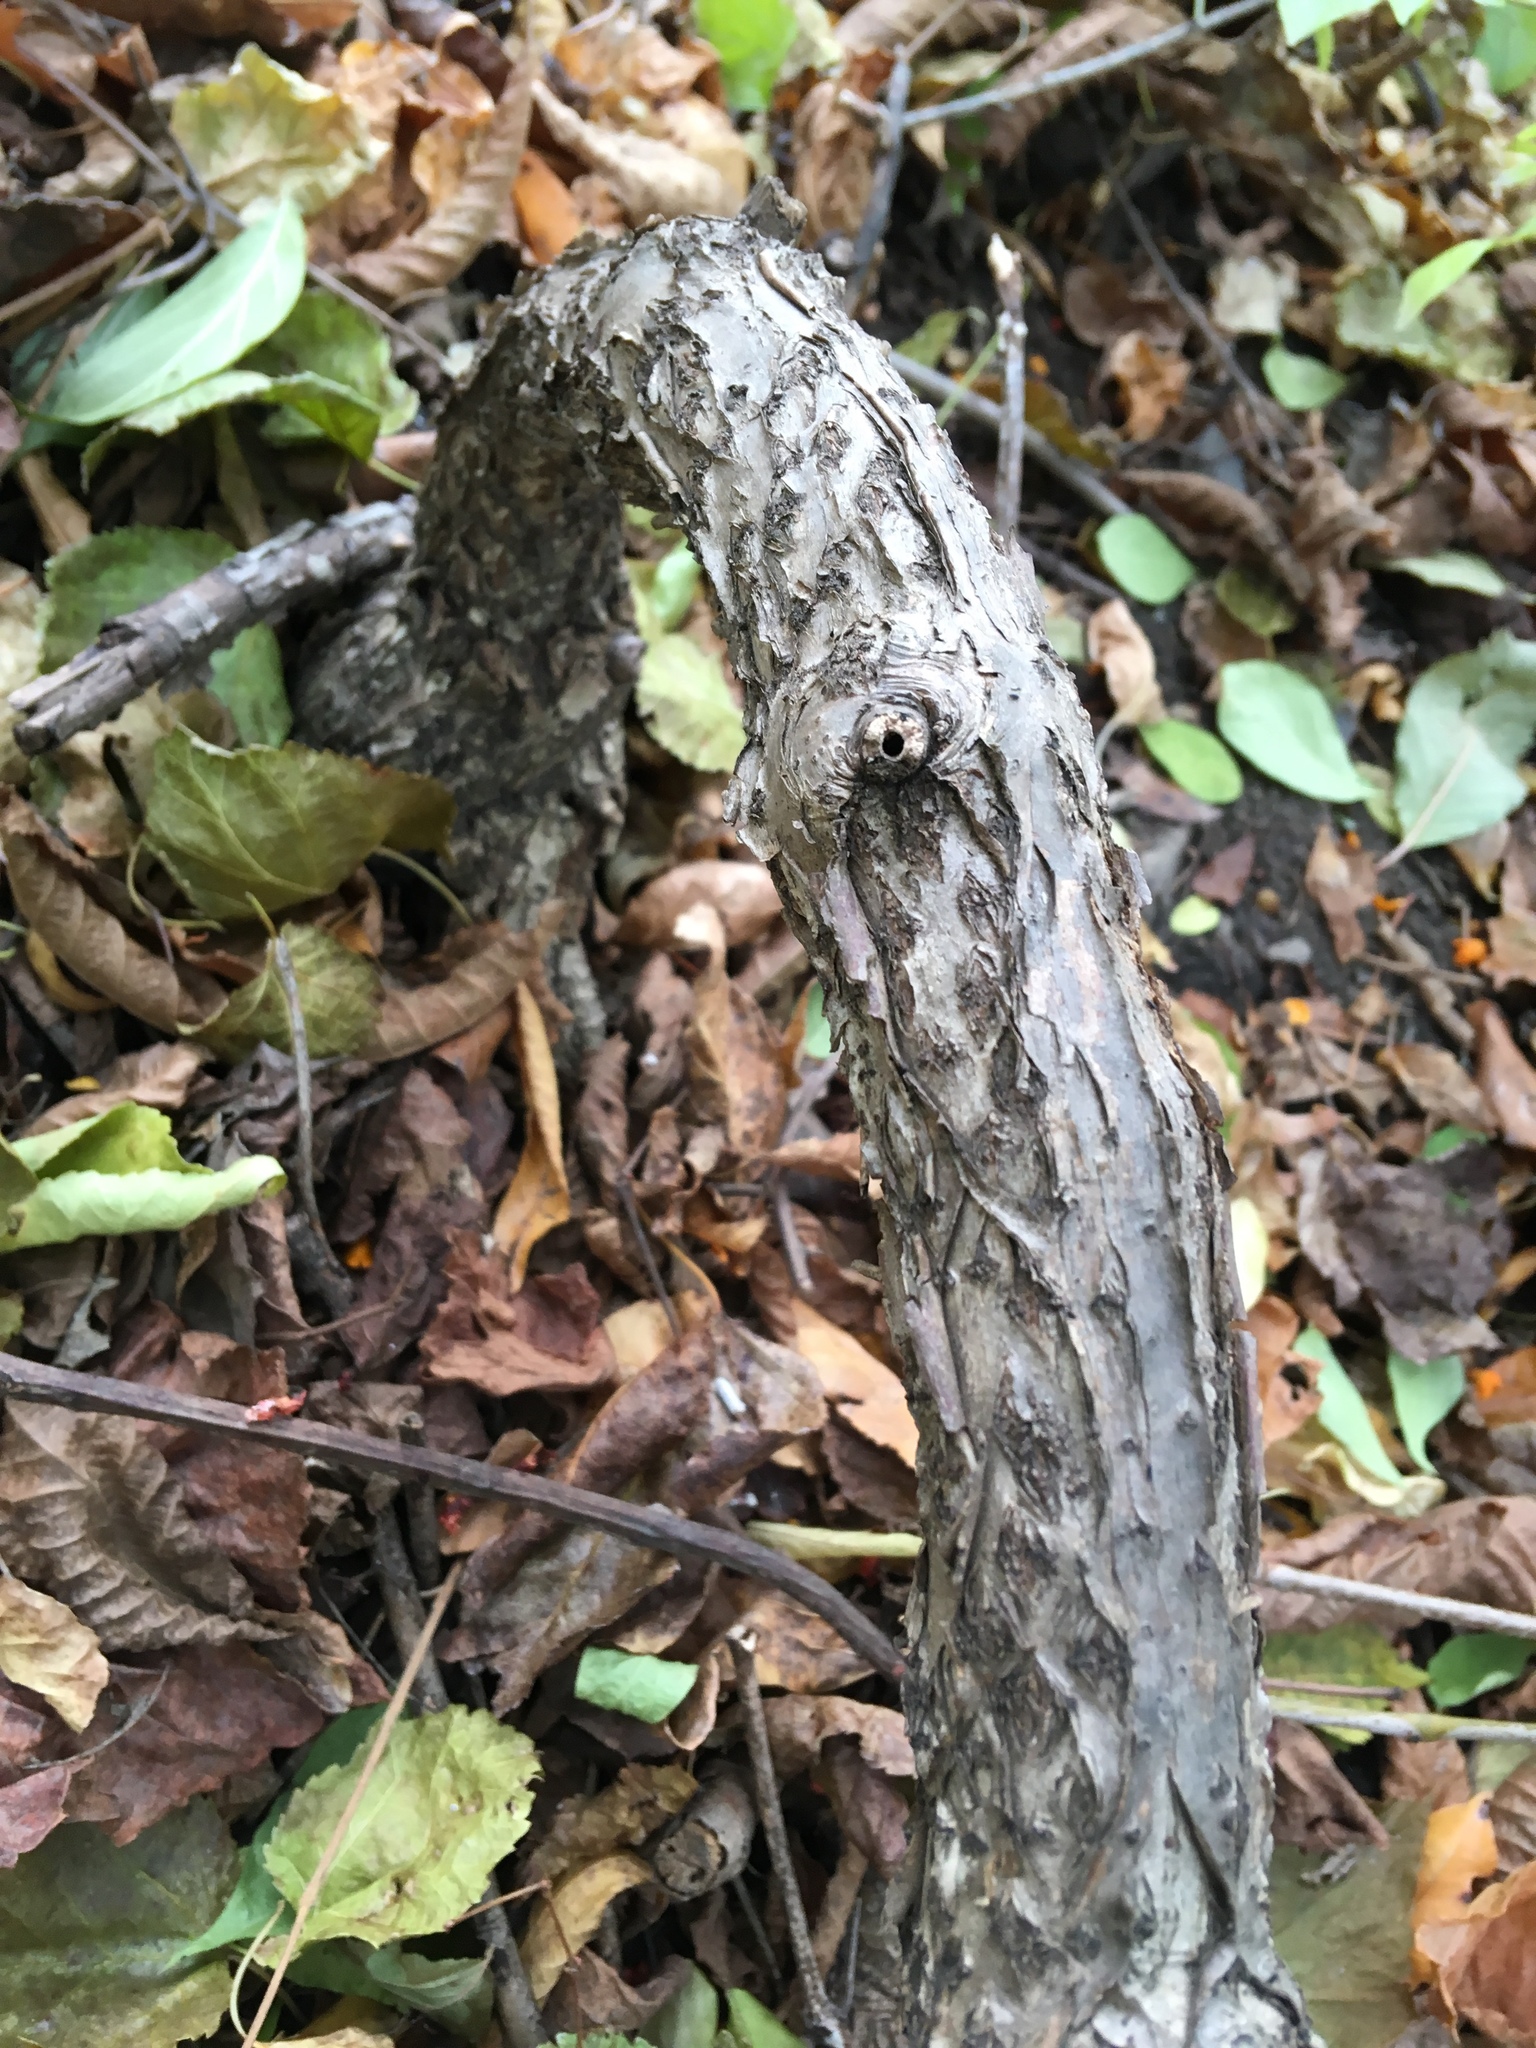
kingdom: Plantae
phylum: Tracheophyta
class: Magnoliopsida
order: Celastrales
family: Celastraceae
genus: Celastrus
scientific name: Celastrus orbiculatus
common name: Oriental bittersweet
